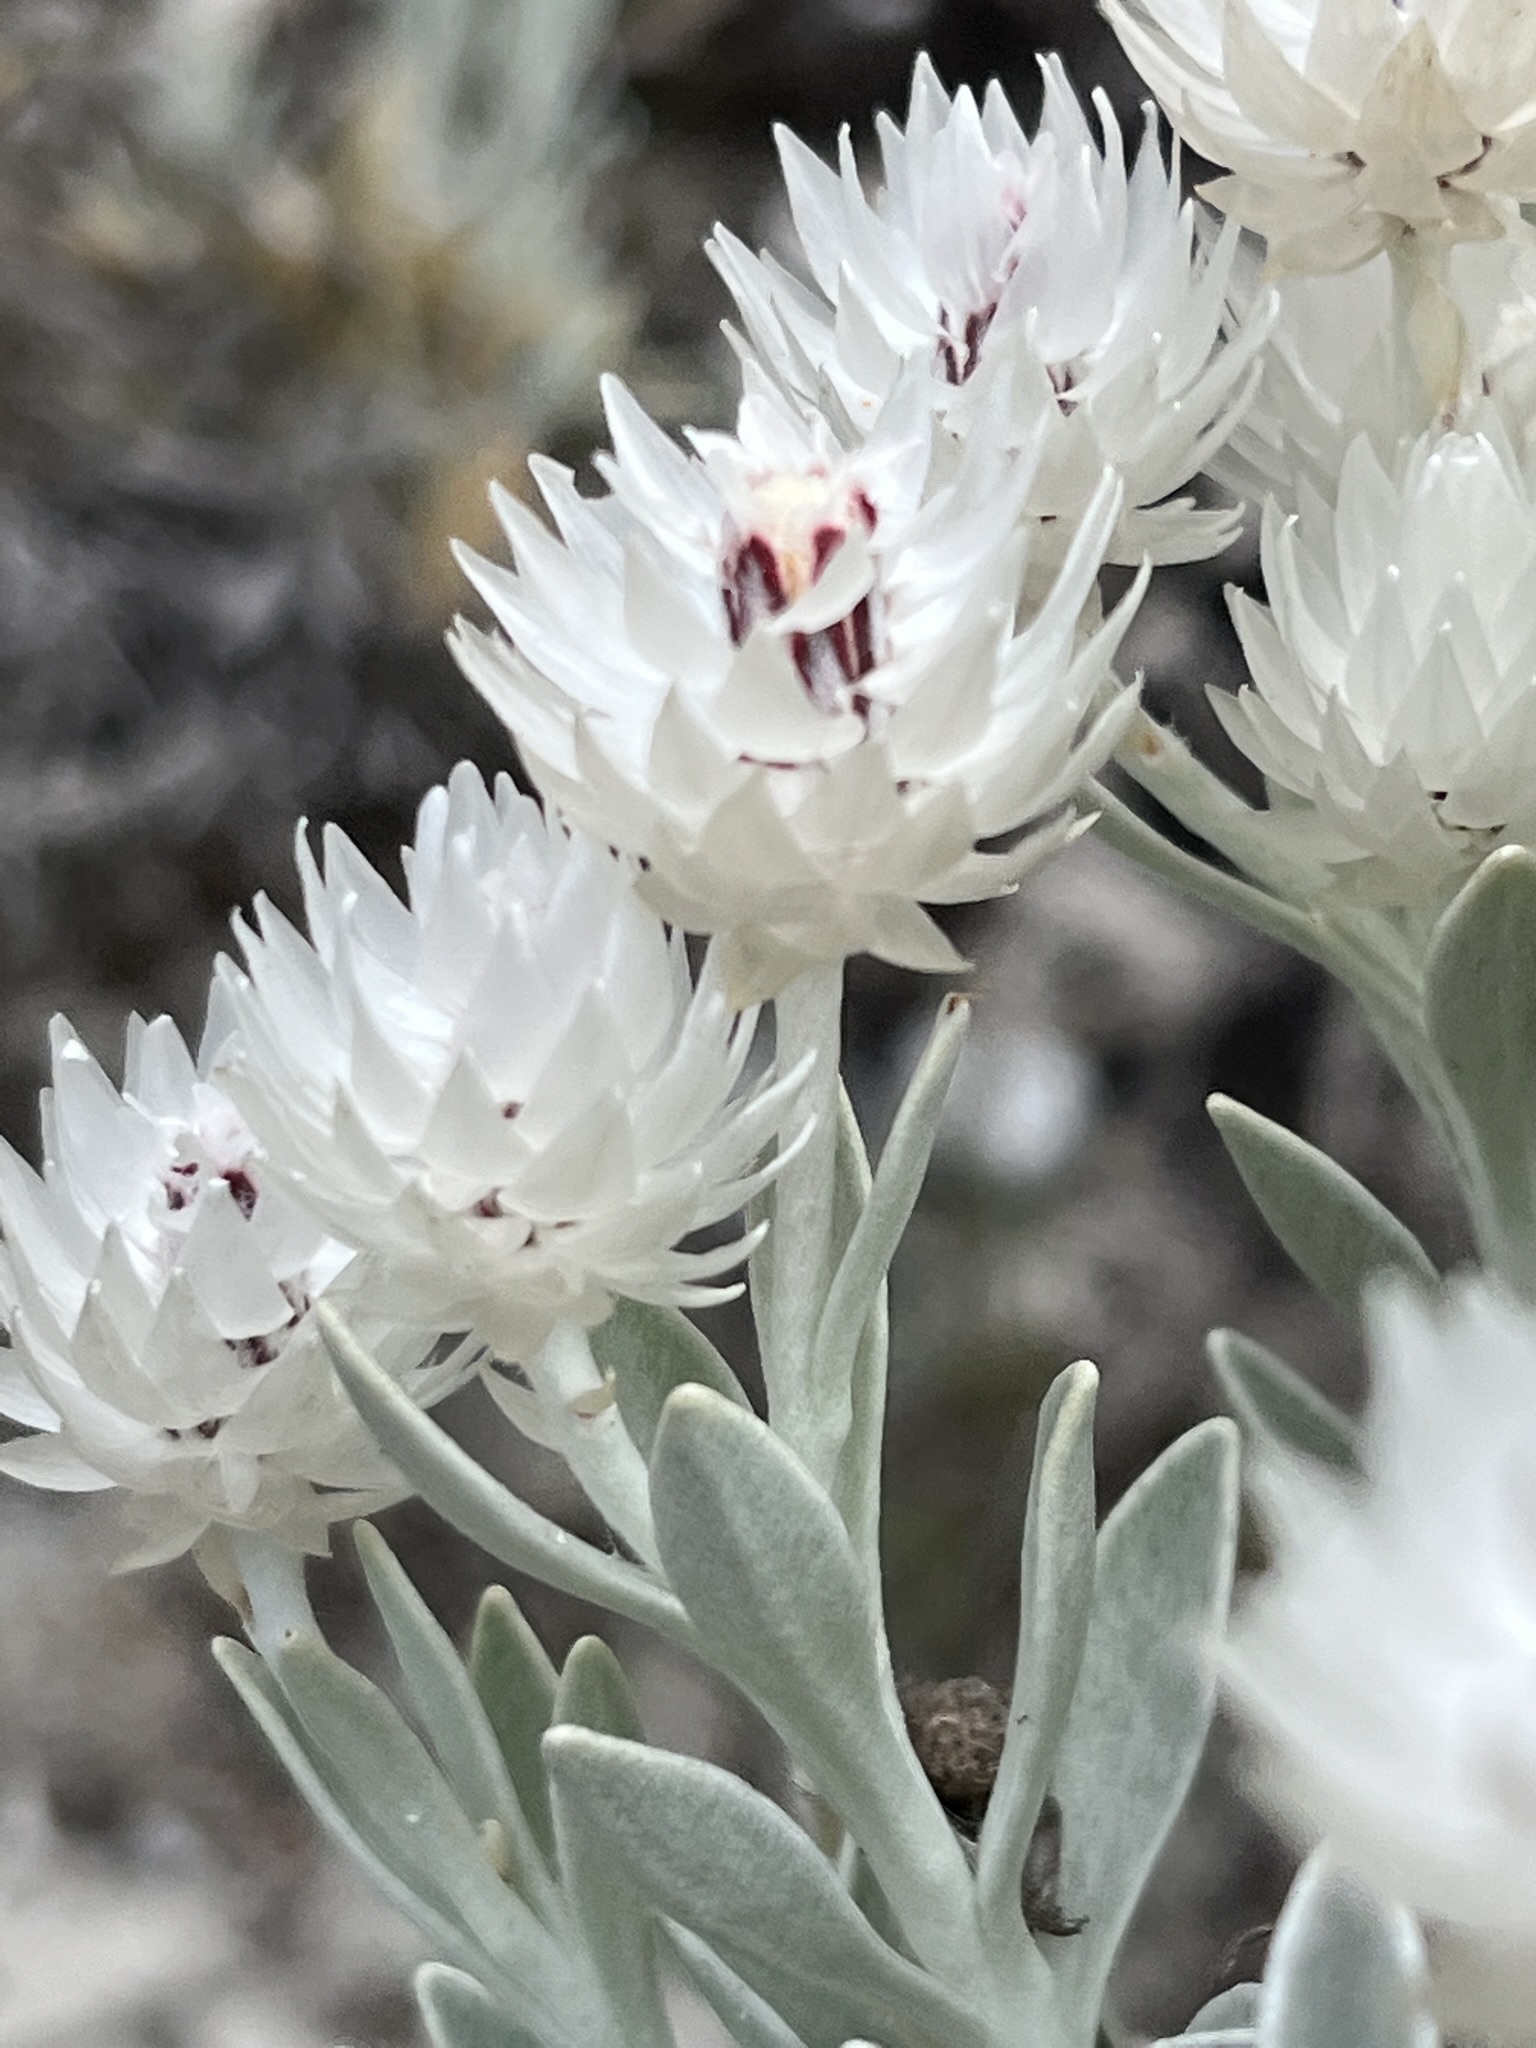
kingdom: Plantae
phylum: Tracheophyta
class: Magnoliopsida
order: Asterales
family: Asteraceae
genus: Syncarpha
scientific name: Syncarpha argyropsis
